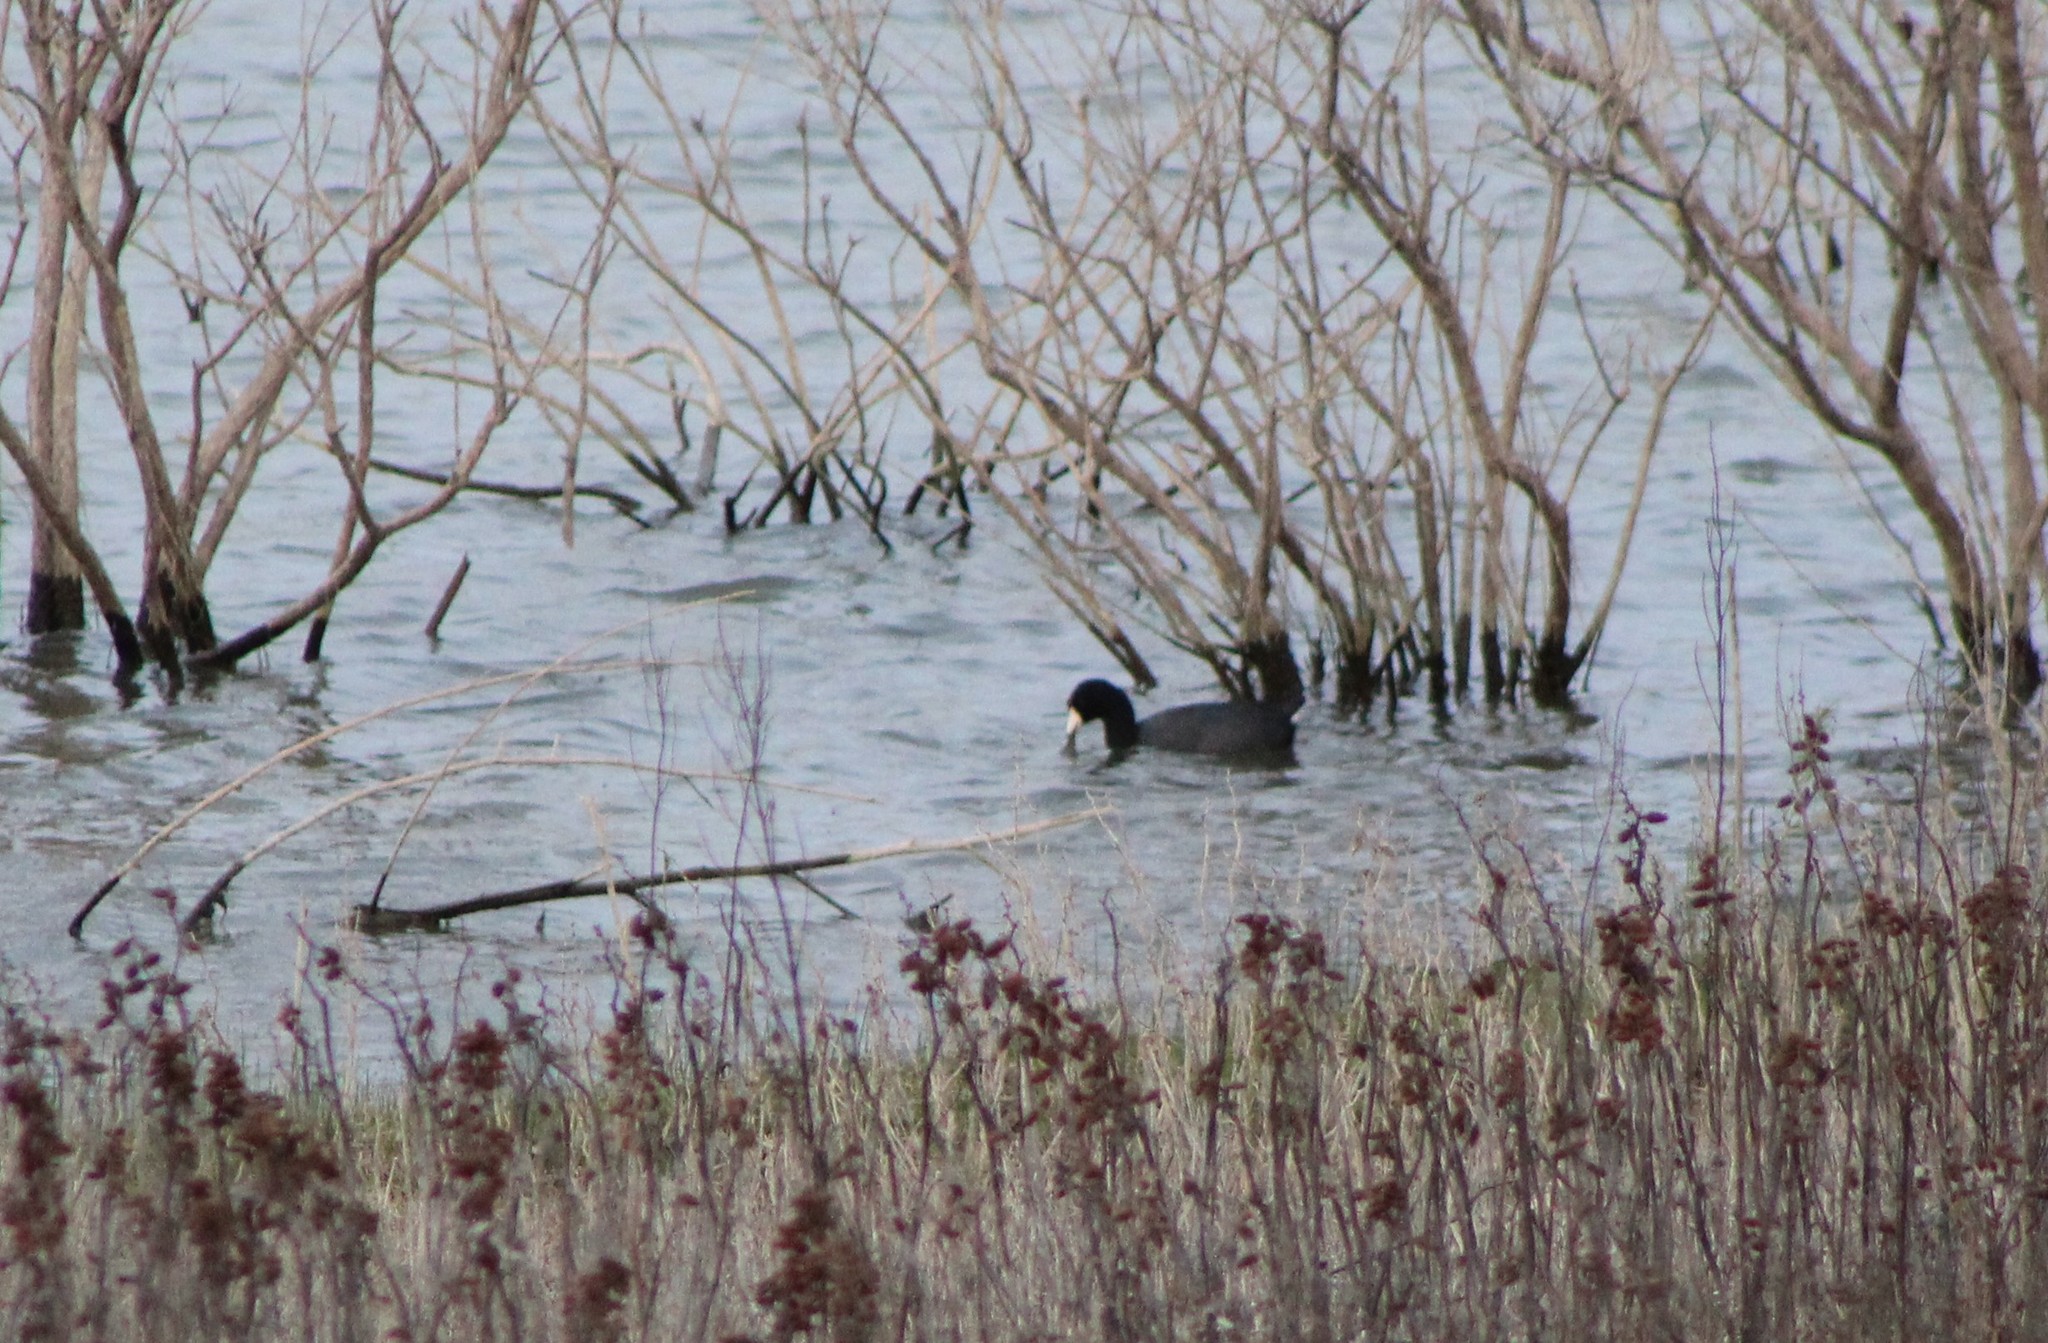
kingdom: Animalia
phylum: Chordata
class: Aves
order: Gruiformes
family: Rallidae
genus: Fulica
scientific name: Fulica americana
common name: American coot
